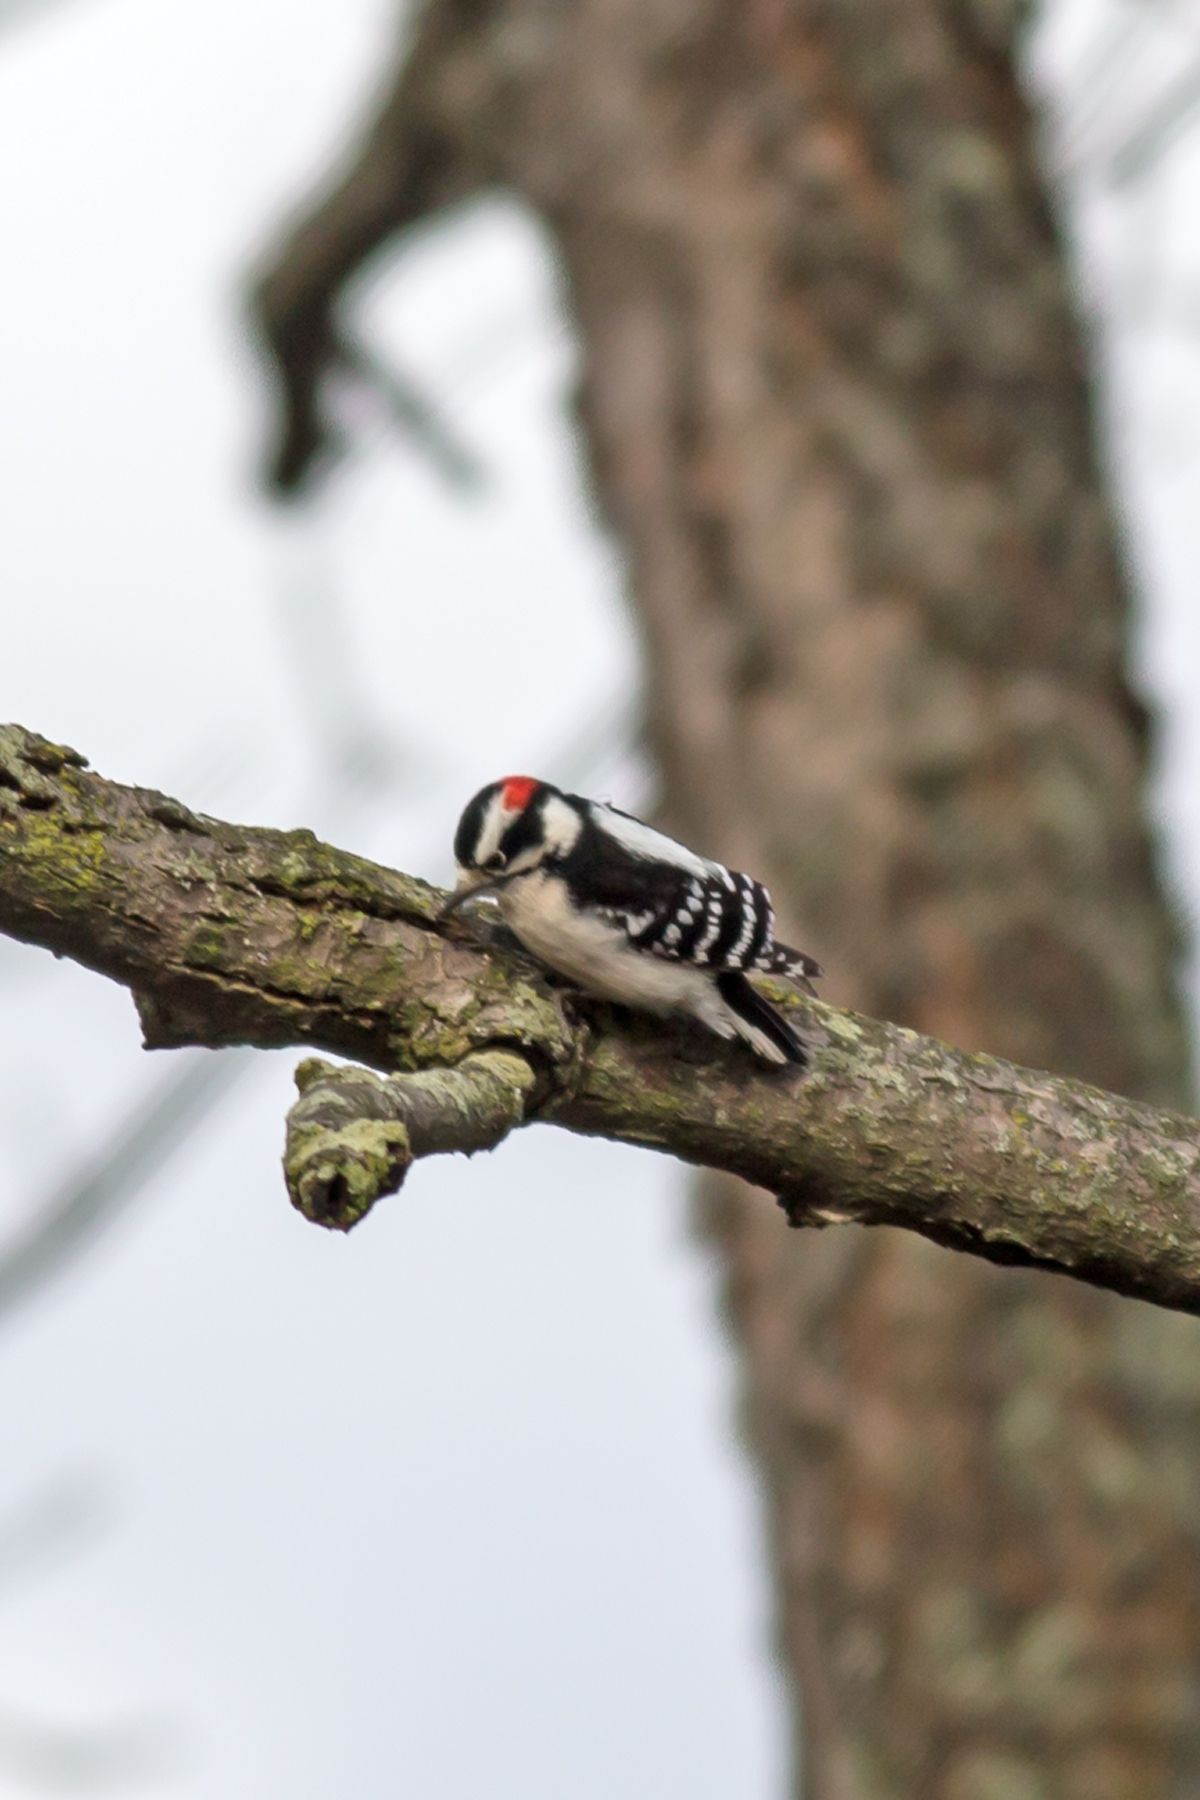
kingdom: Animalia
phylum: Chordata
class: Aves
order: Piciformes
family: Picidae
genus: Dryobates
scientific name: Dryobates pubescens
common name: Downy woodpecker
